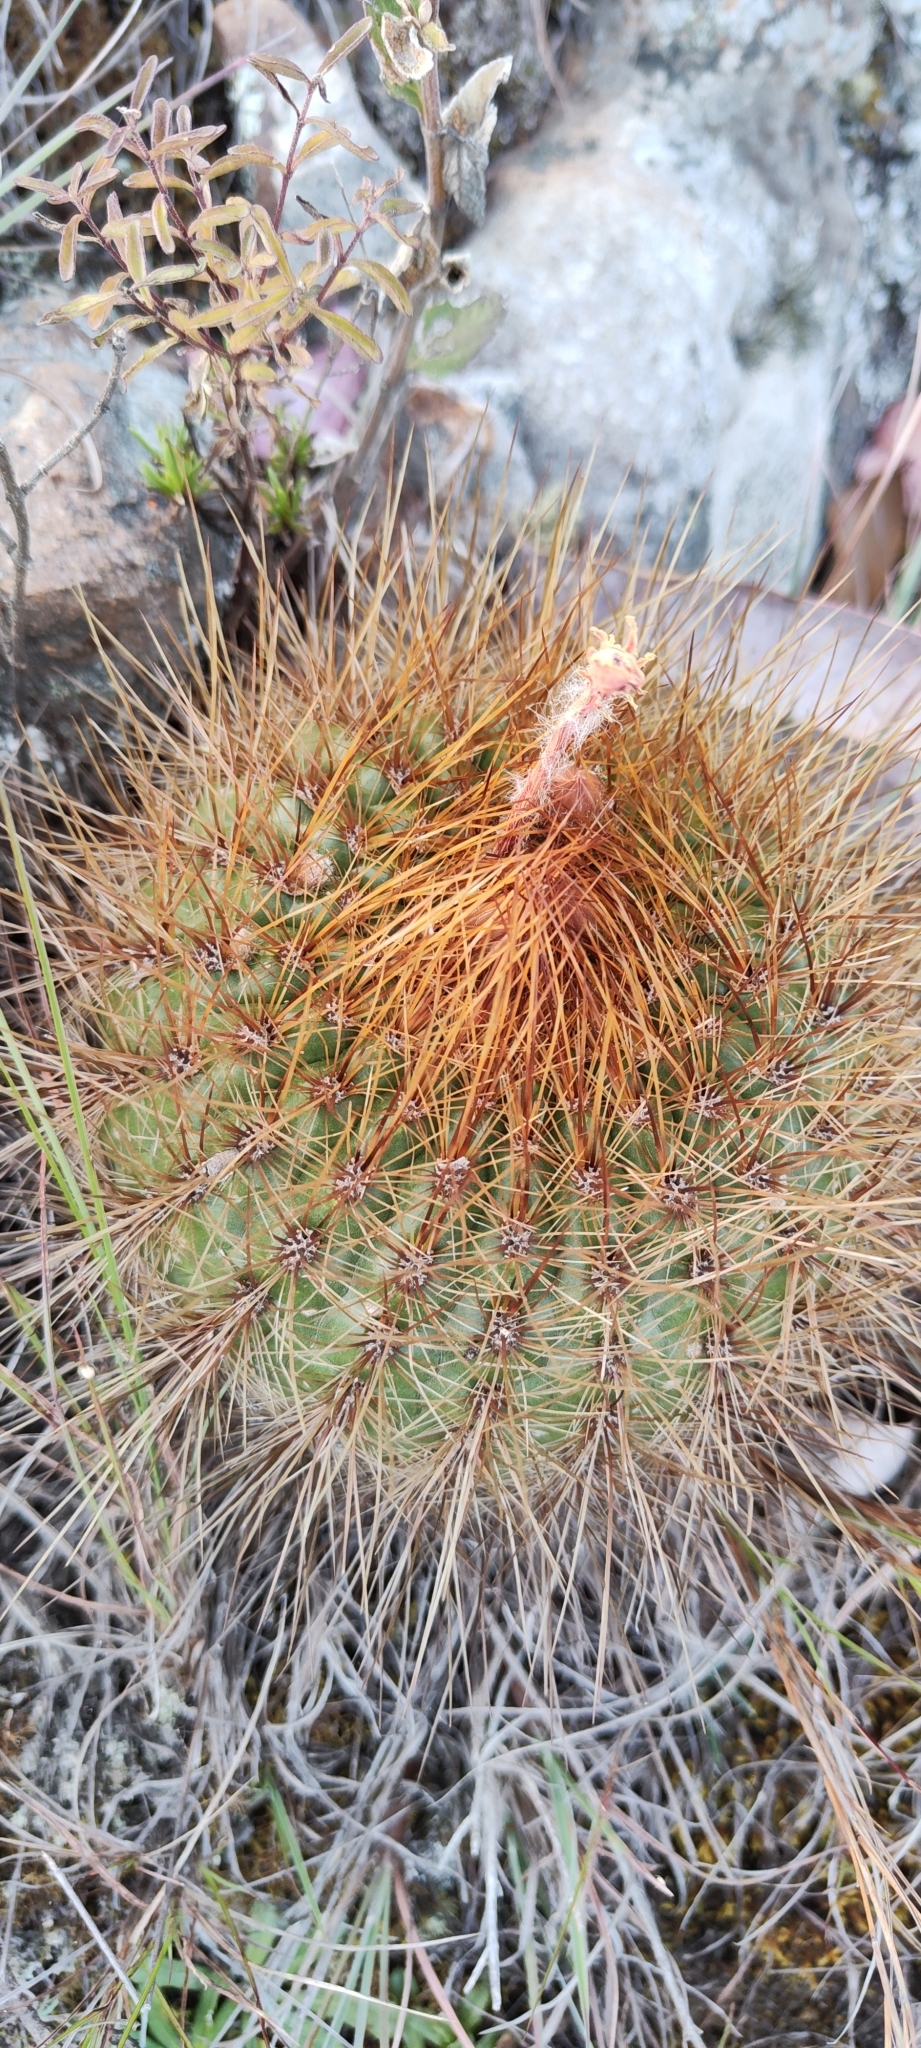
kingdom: Plantae
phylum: Tracheophyta
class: Magnoliopsida
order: Caryophyllales
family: Cactaceae
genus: Matucana
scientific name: Matucana aurantiaca
